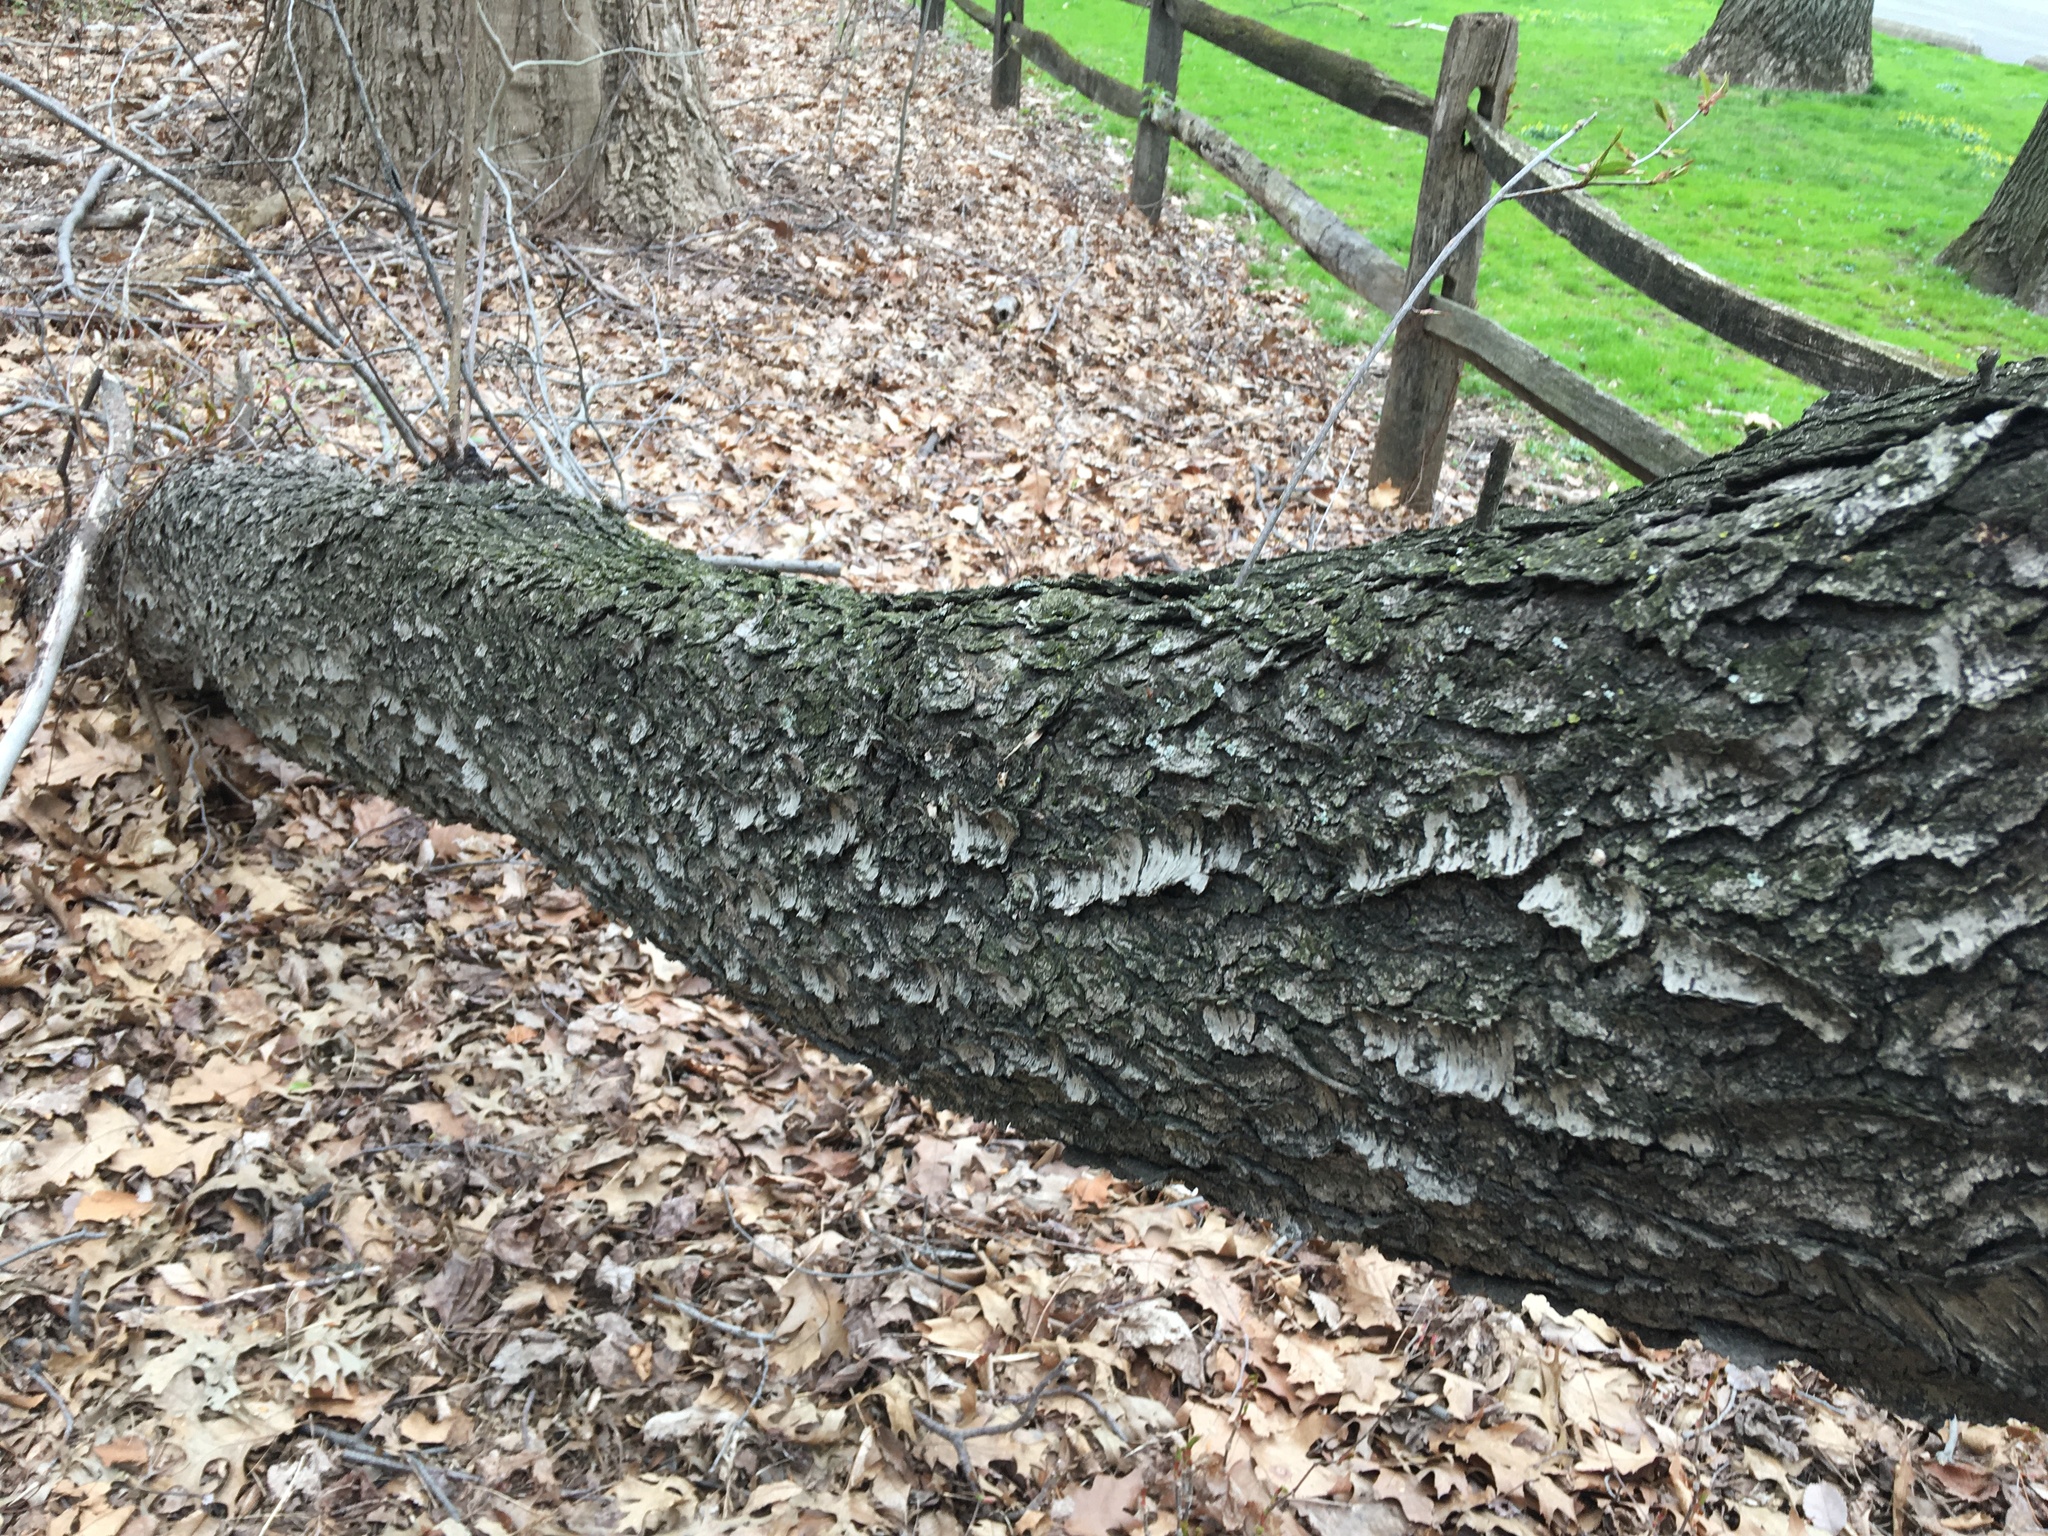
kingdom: Plantae
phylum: Tracheophyta
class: Magnoliopsida
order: Rosales
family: Rosaceae
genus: Prunus
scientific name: Prunus serotina
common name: Black cherry
